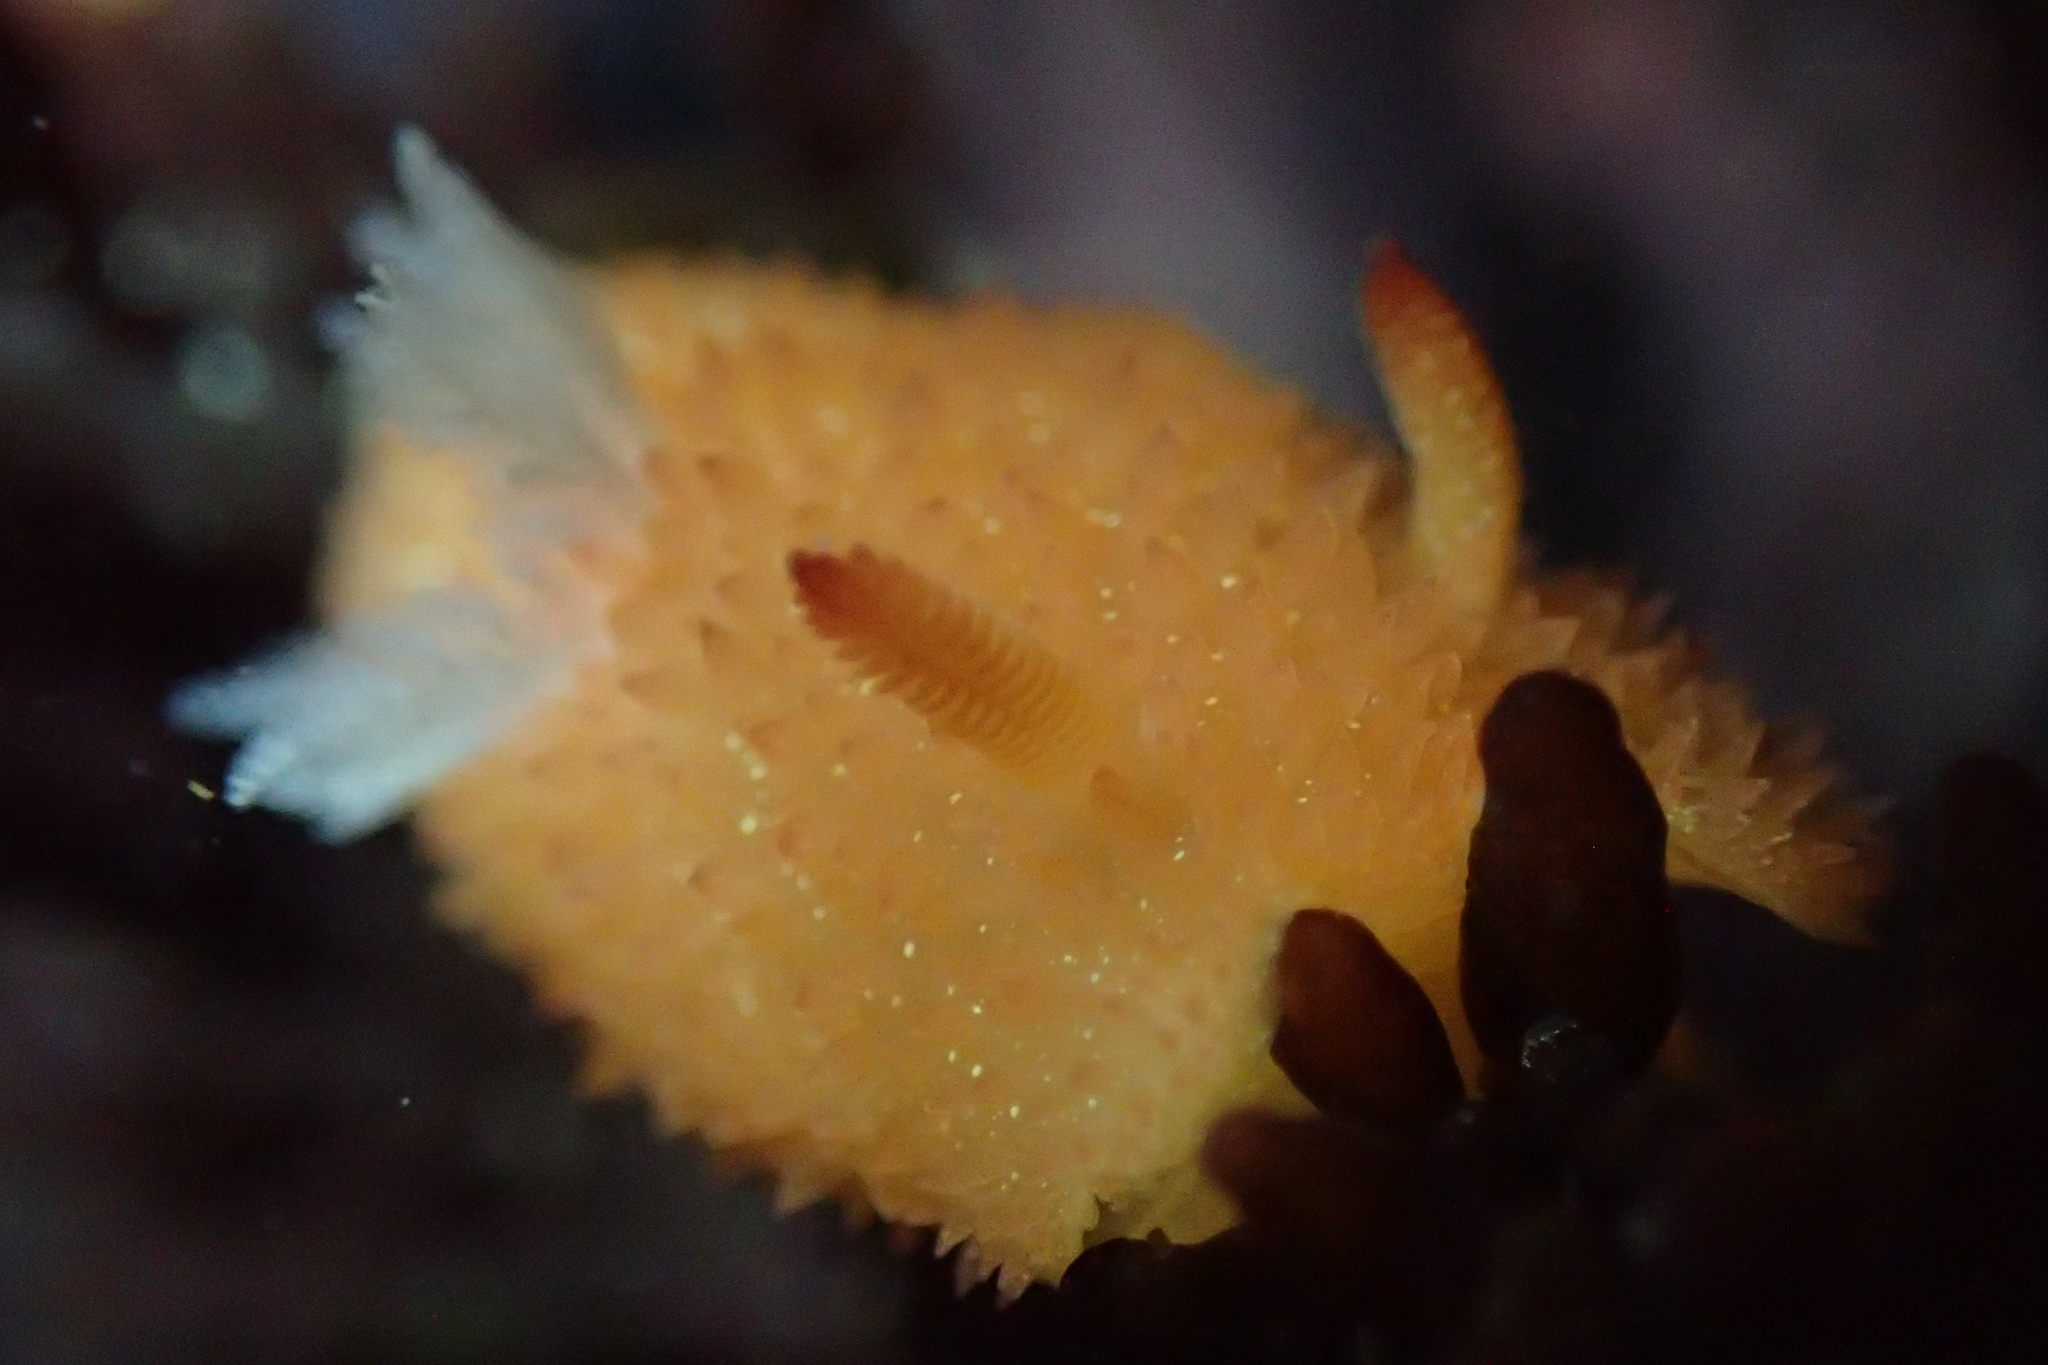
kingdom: Animalia
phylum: Mollusca
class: Gastropoda
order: Nudibranchia
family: Onchidorididae
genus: Acanthodoris
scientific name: Acanthodoris lutea
